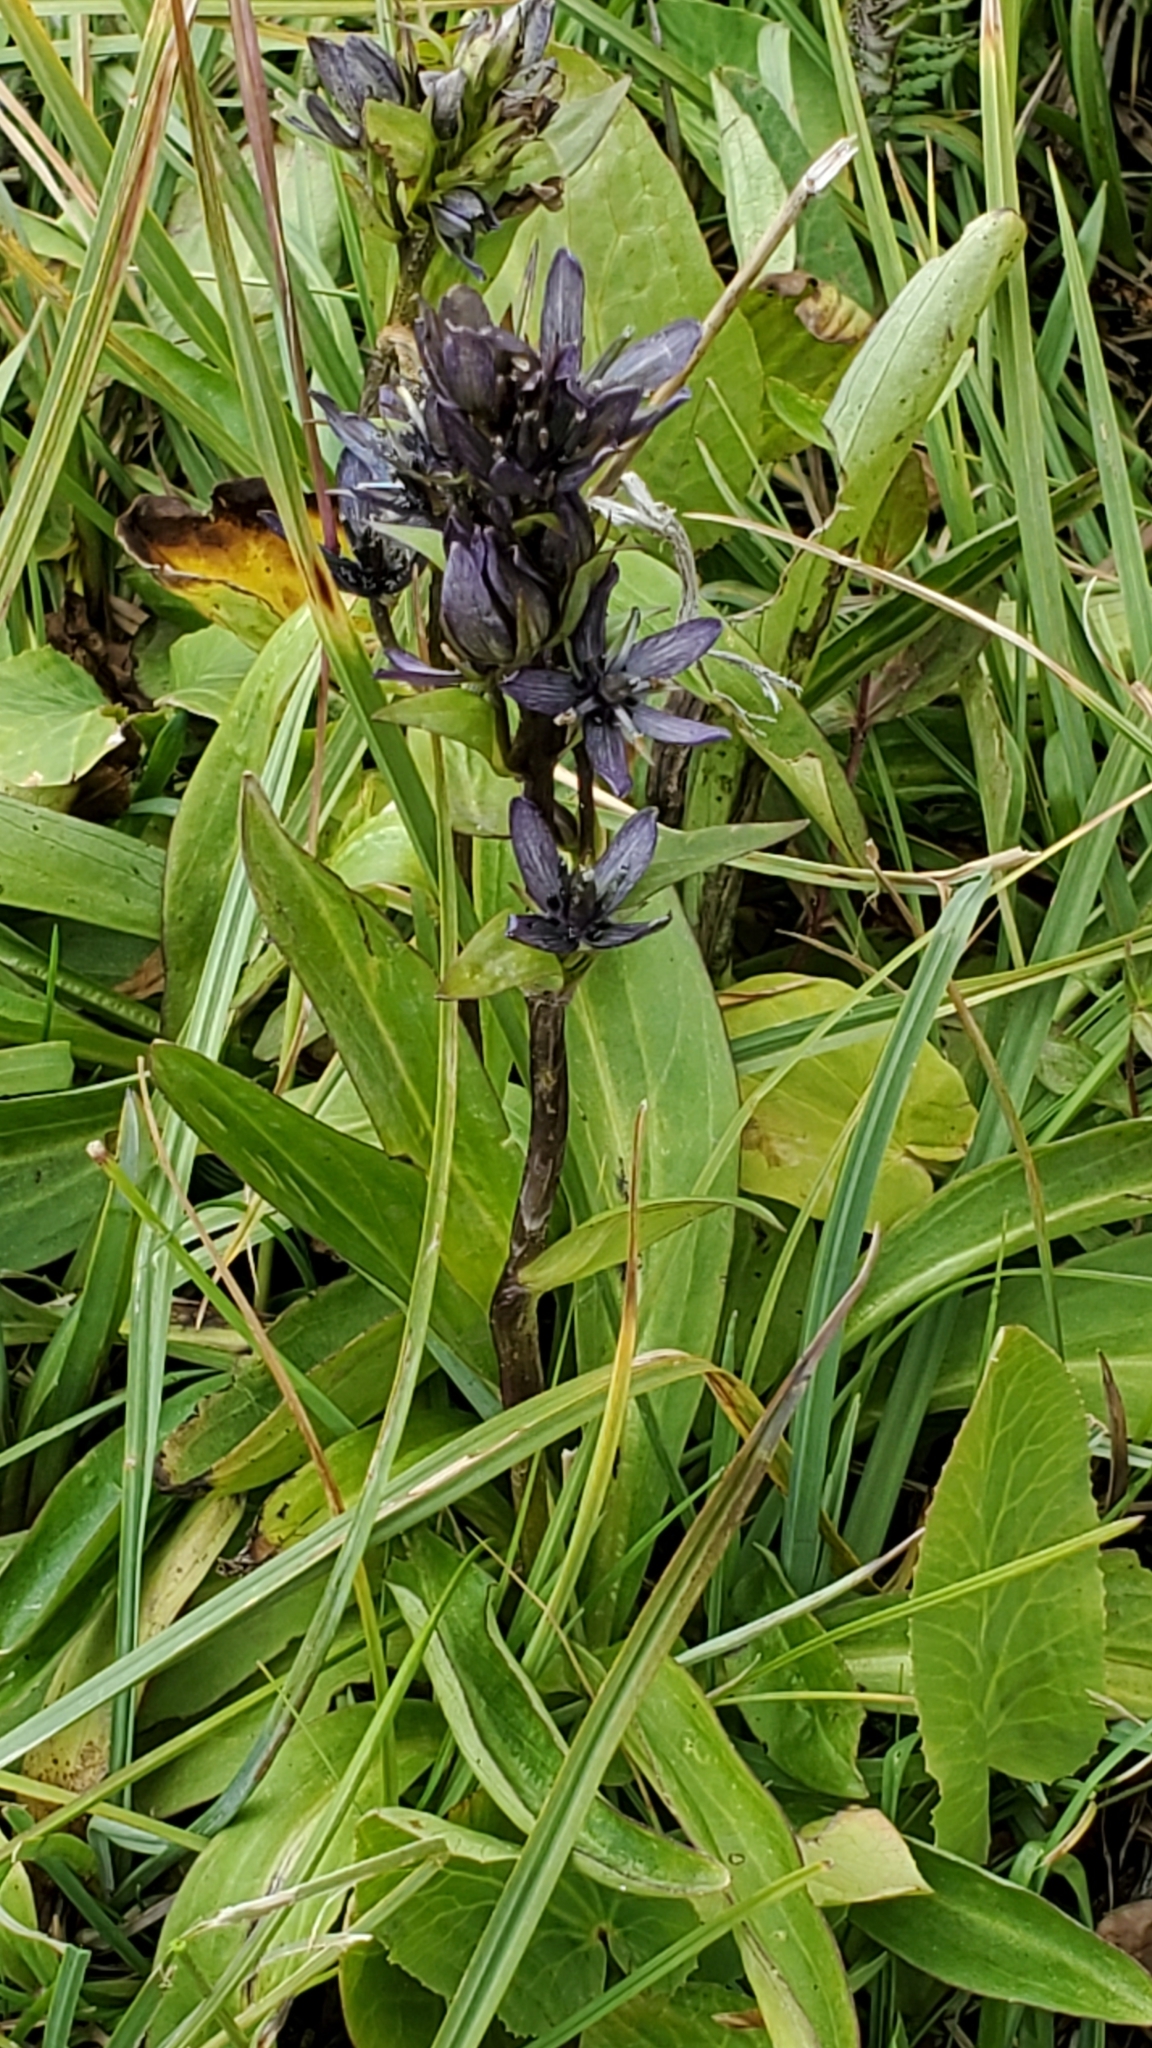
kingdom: Plantae
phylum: Tracheophyta
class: Magnoliopsida
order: Gentianales
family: Gentianaceae
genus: Swertia
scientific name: Swertia perennis
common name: Alpine bog swertia
